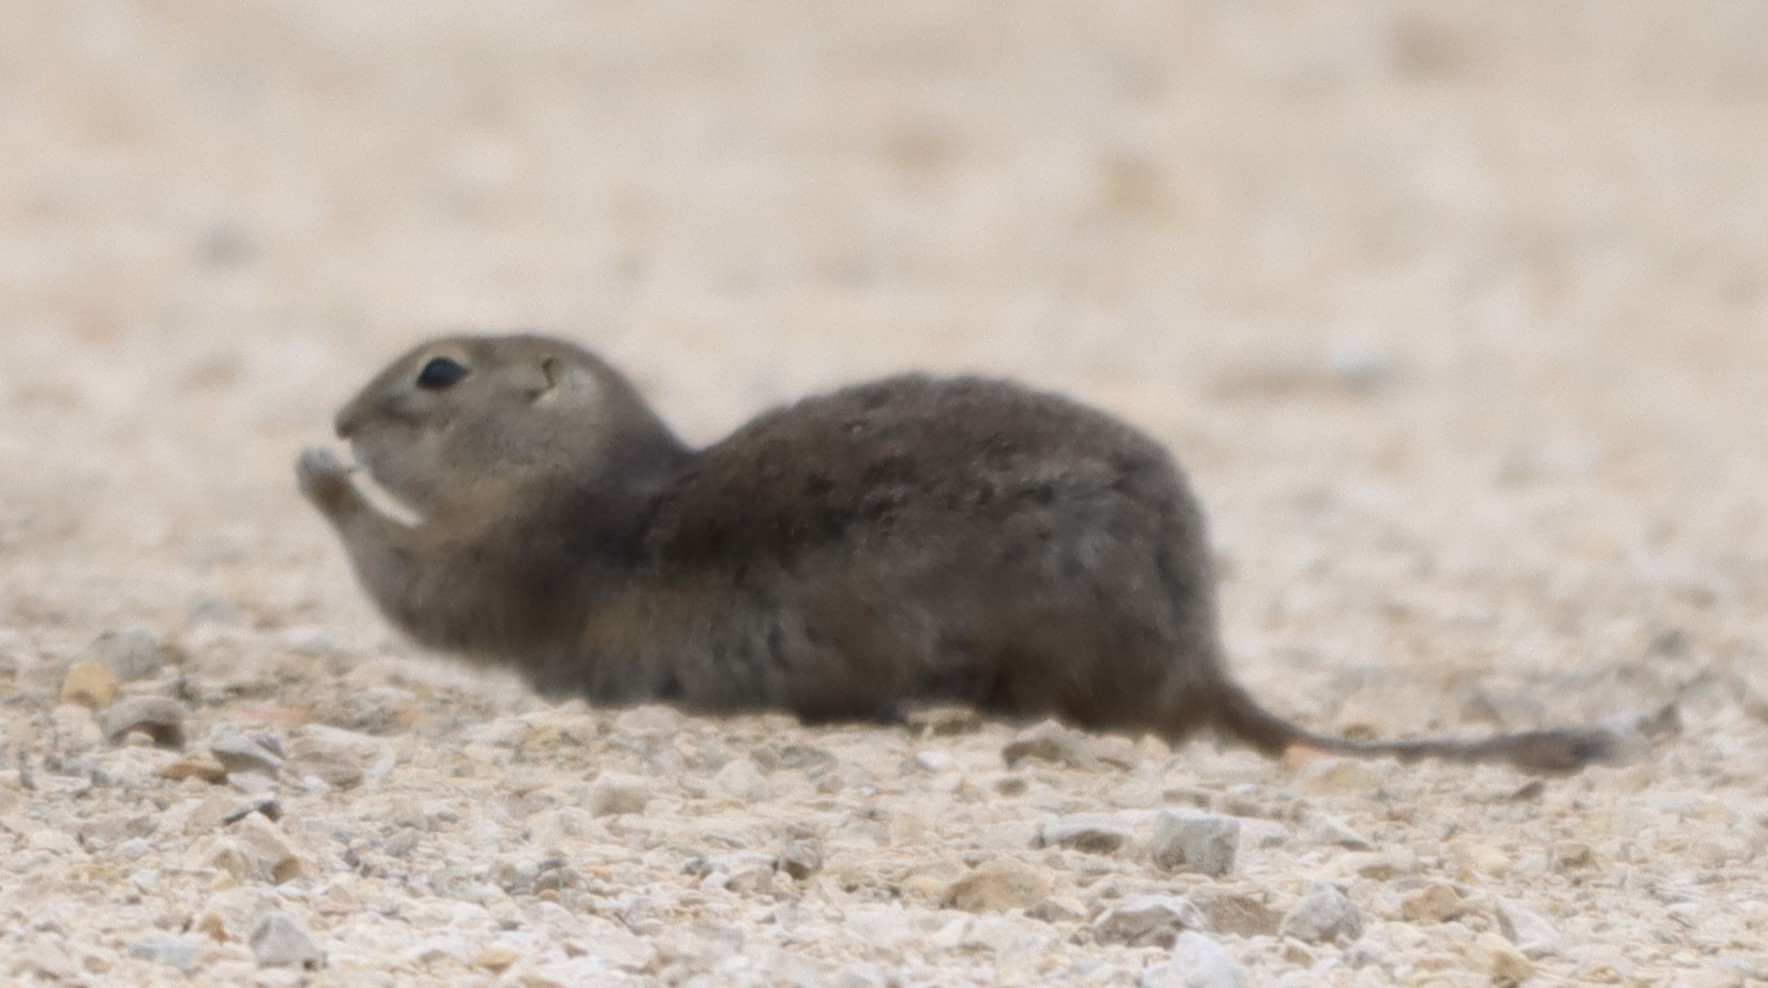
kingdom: Animalia
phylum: Chordata
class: Mammalia
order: Rodentia
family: Sciuridae
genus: Urocitellus
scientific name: Urocitellus richardsonii
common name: Richardson's ground squirrel
